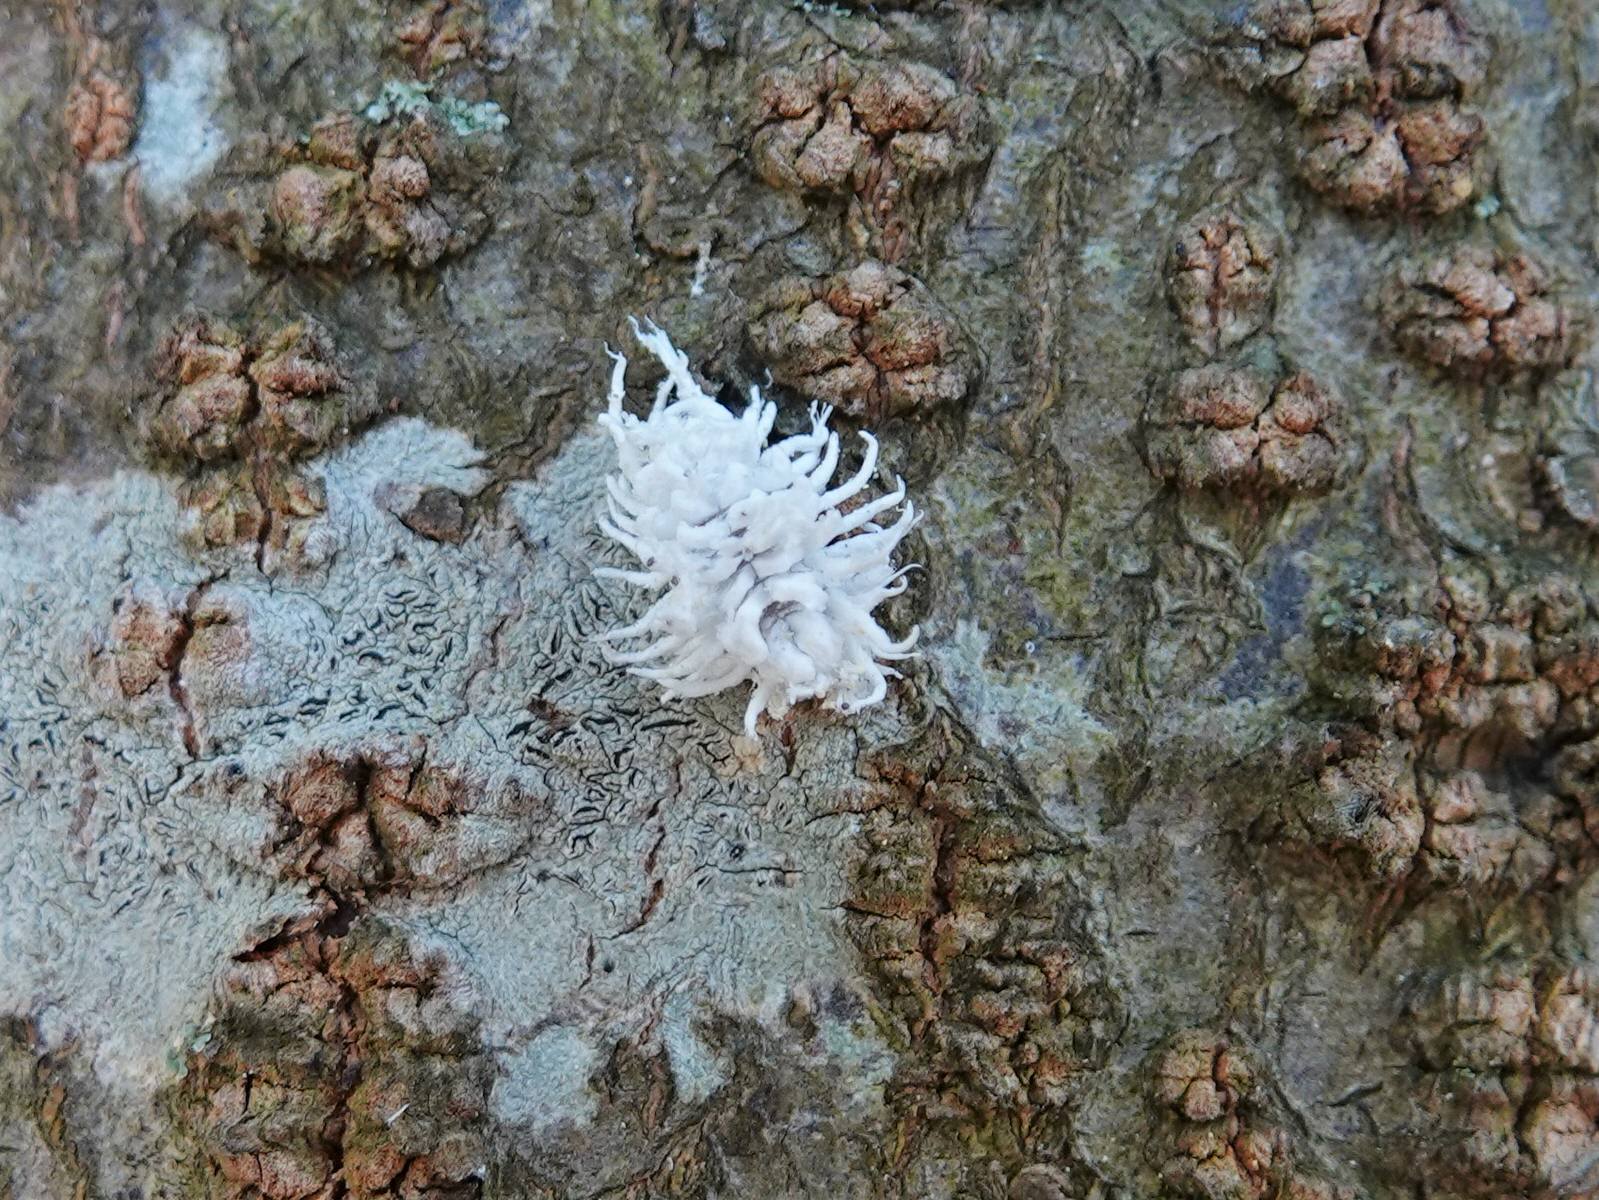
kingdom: Animalia
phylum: Arthropoda
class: Insecta
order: Coleoptera
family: Coccinellidae
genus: Cryptolaemus
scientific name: Cryptolaemus montrouzieri
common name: Mealybug destroyer
